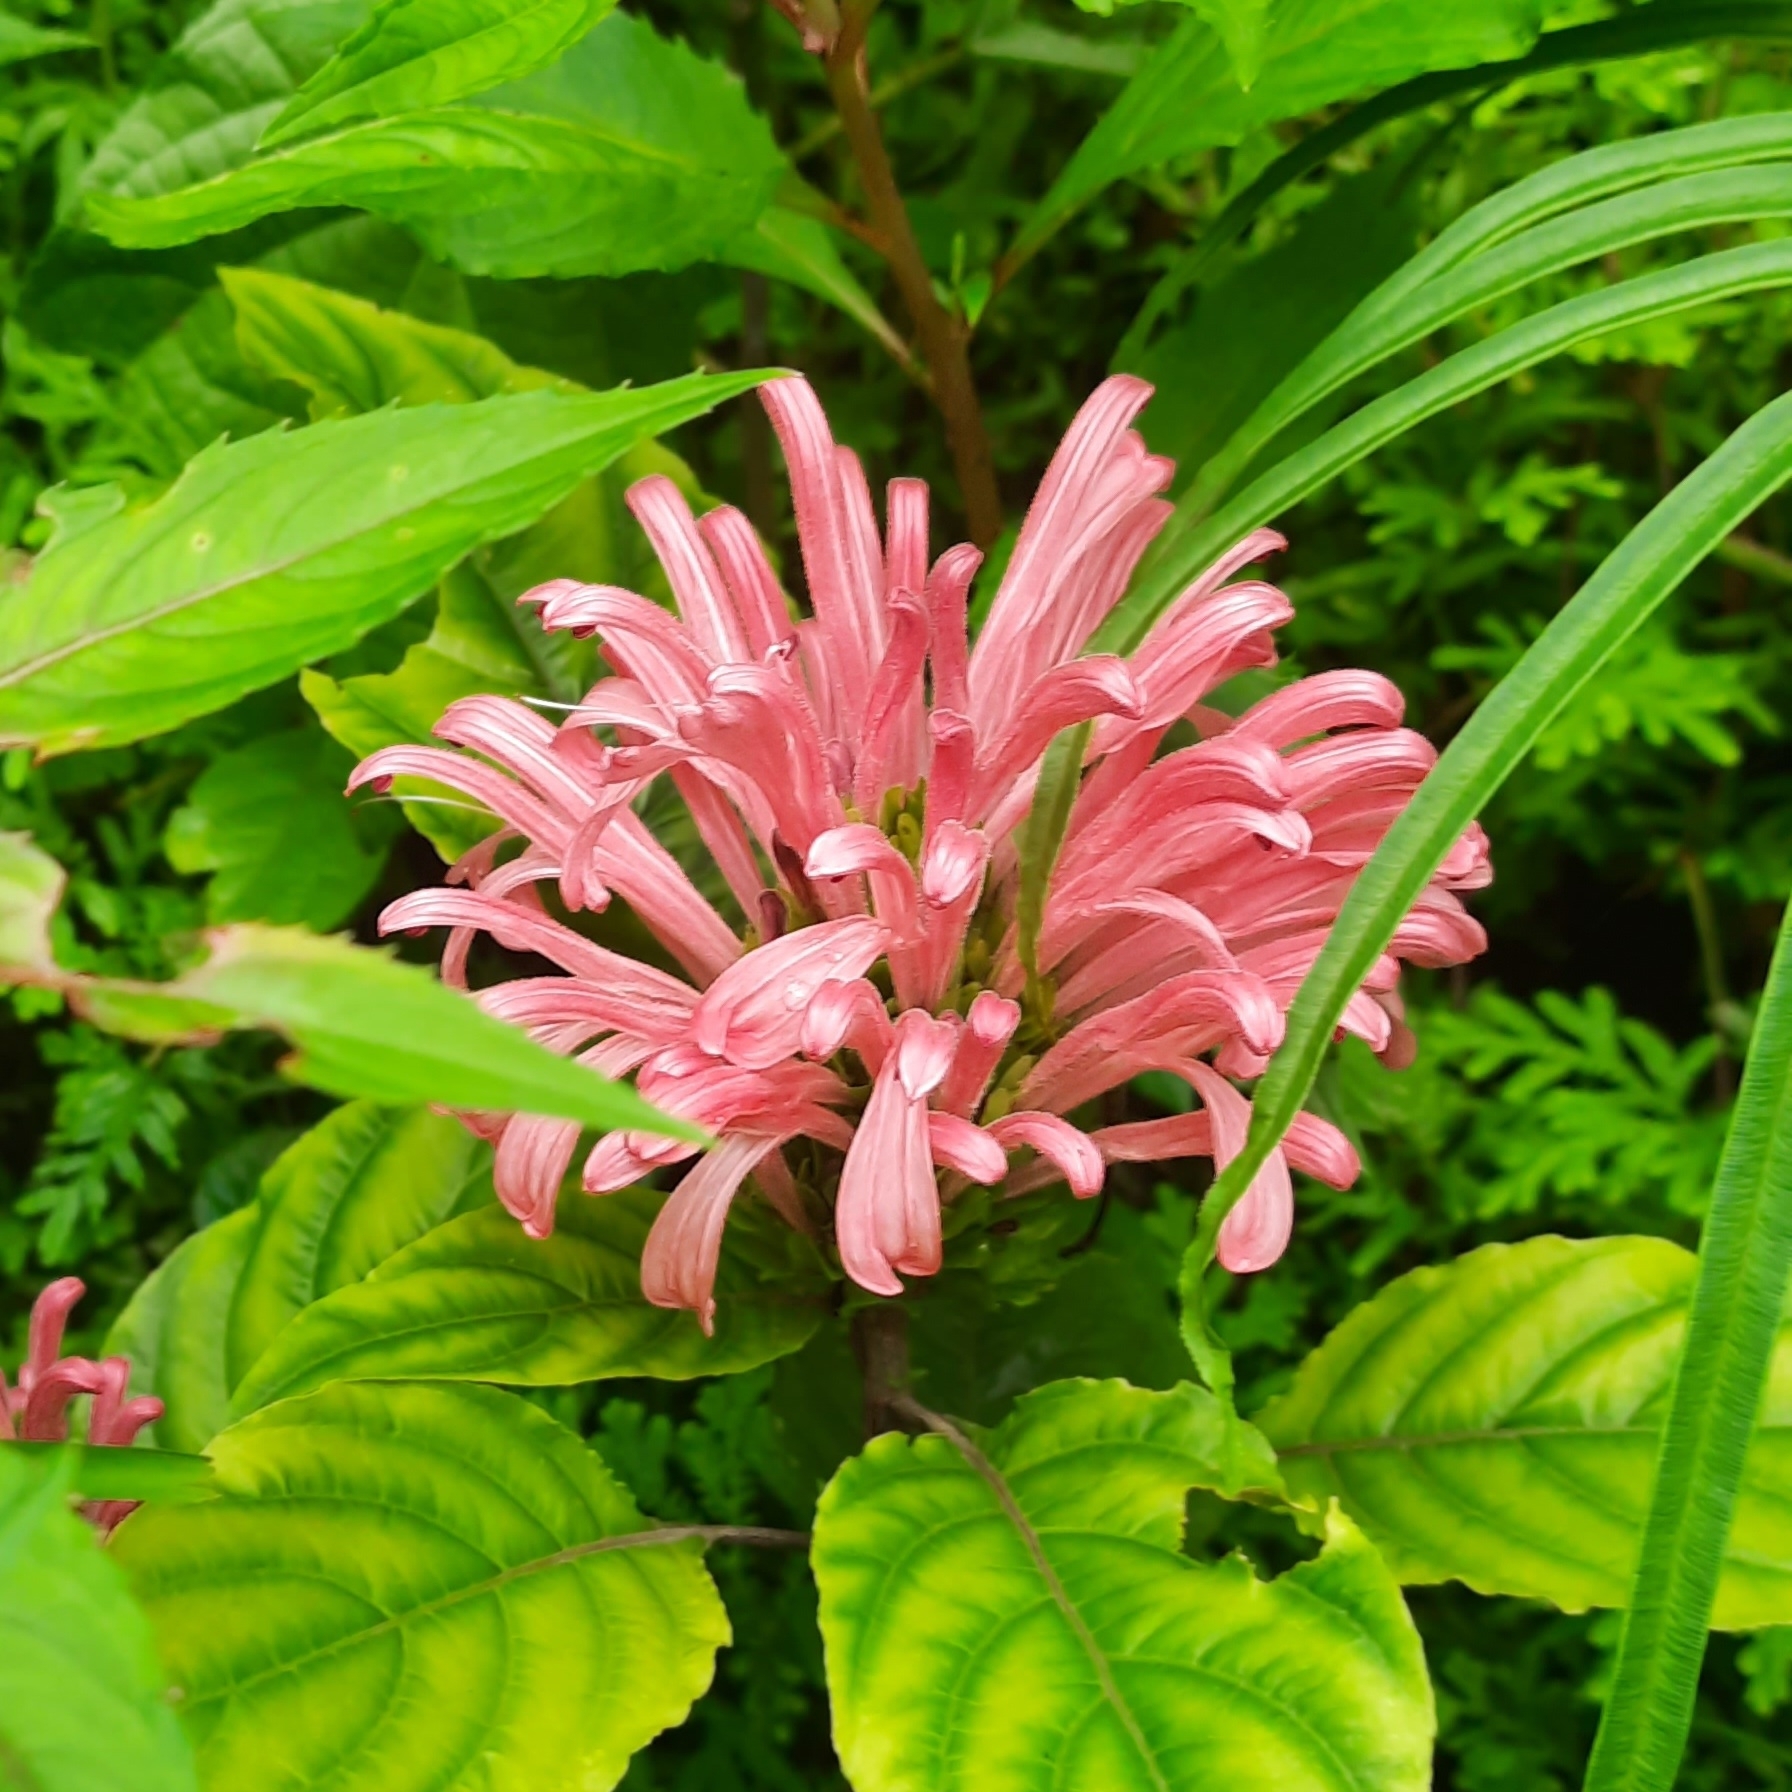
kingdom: Plantae
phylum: Tracheophyta
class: Magnoliopsida
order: Lamiales
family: Acanthaceae
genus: Justicia
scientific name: Justicia carnea
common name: Brazilian-plume
